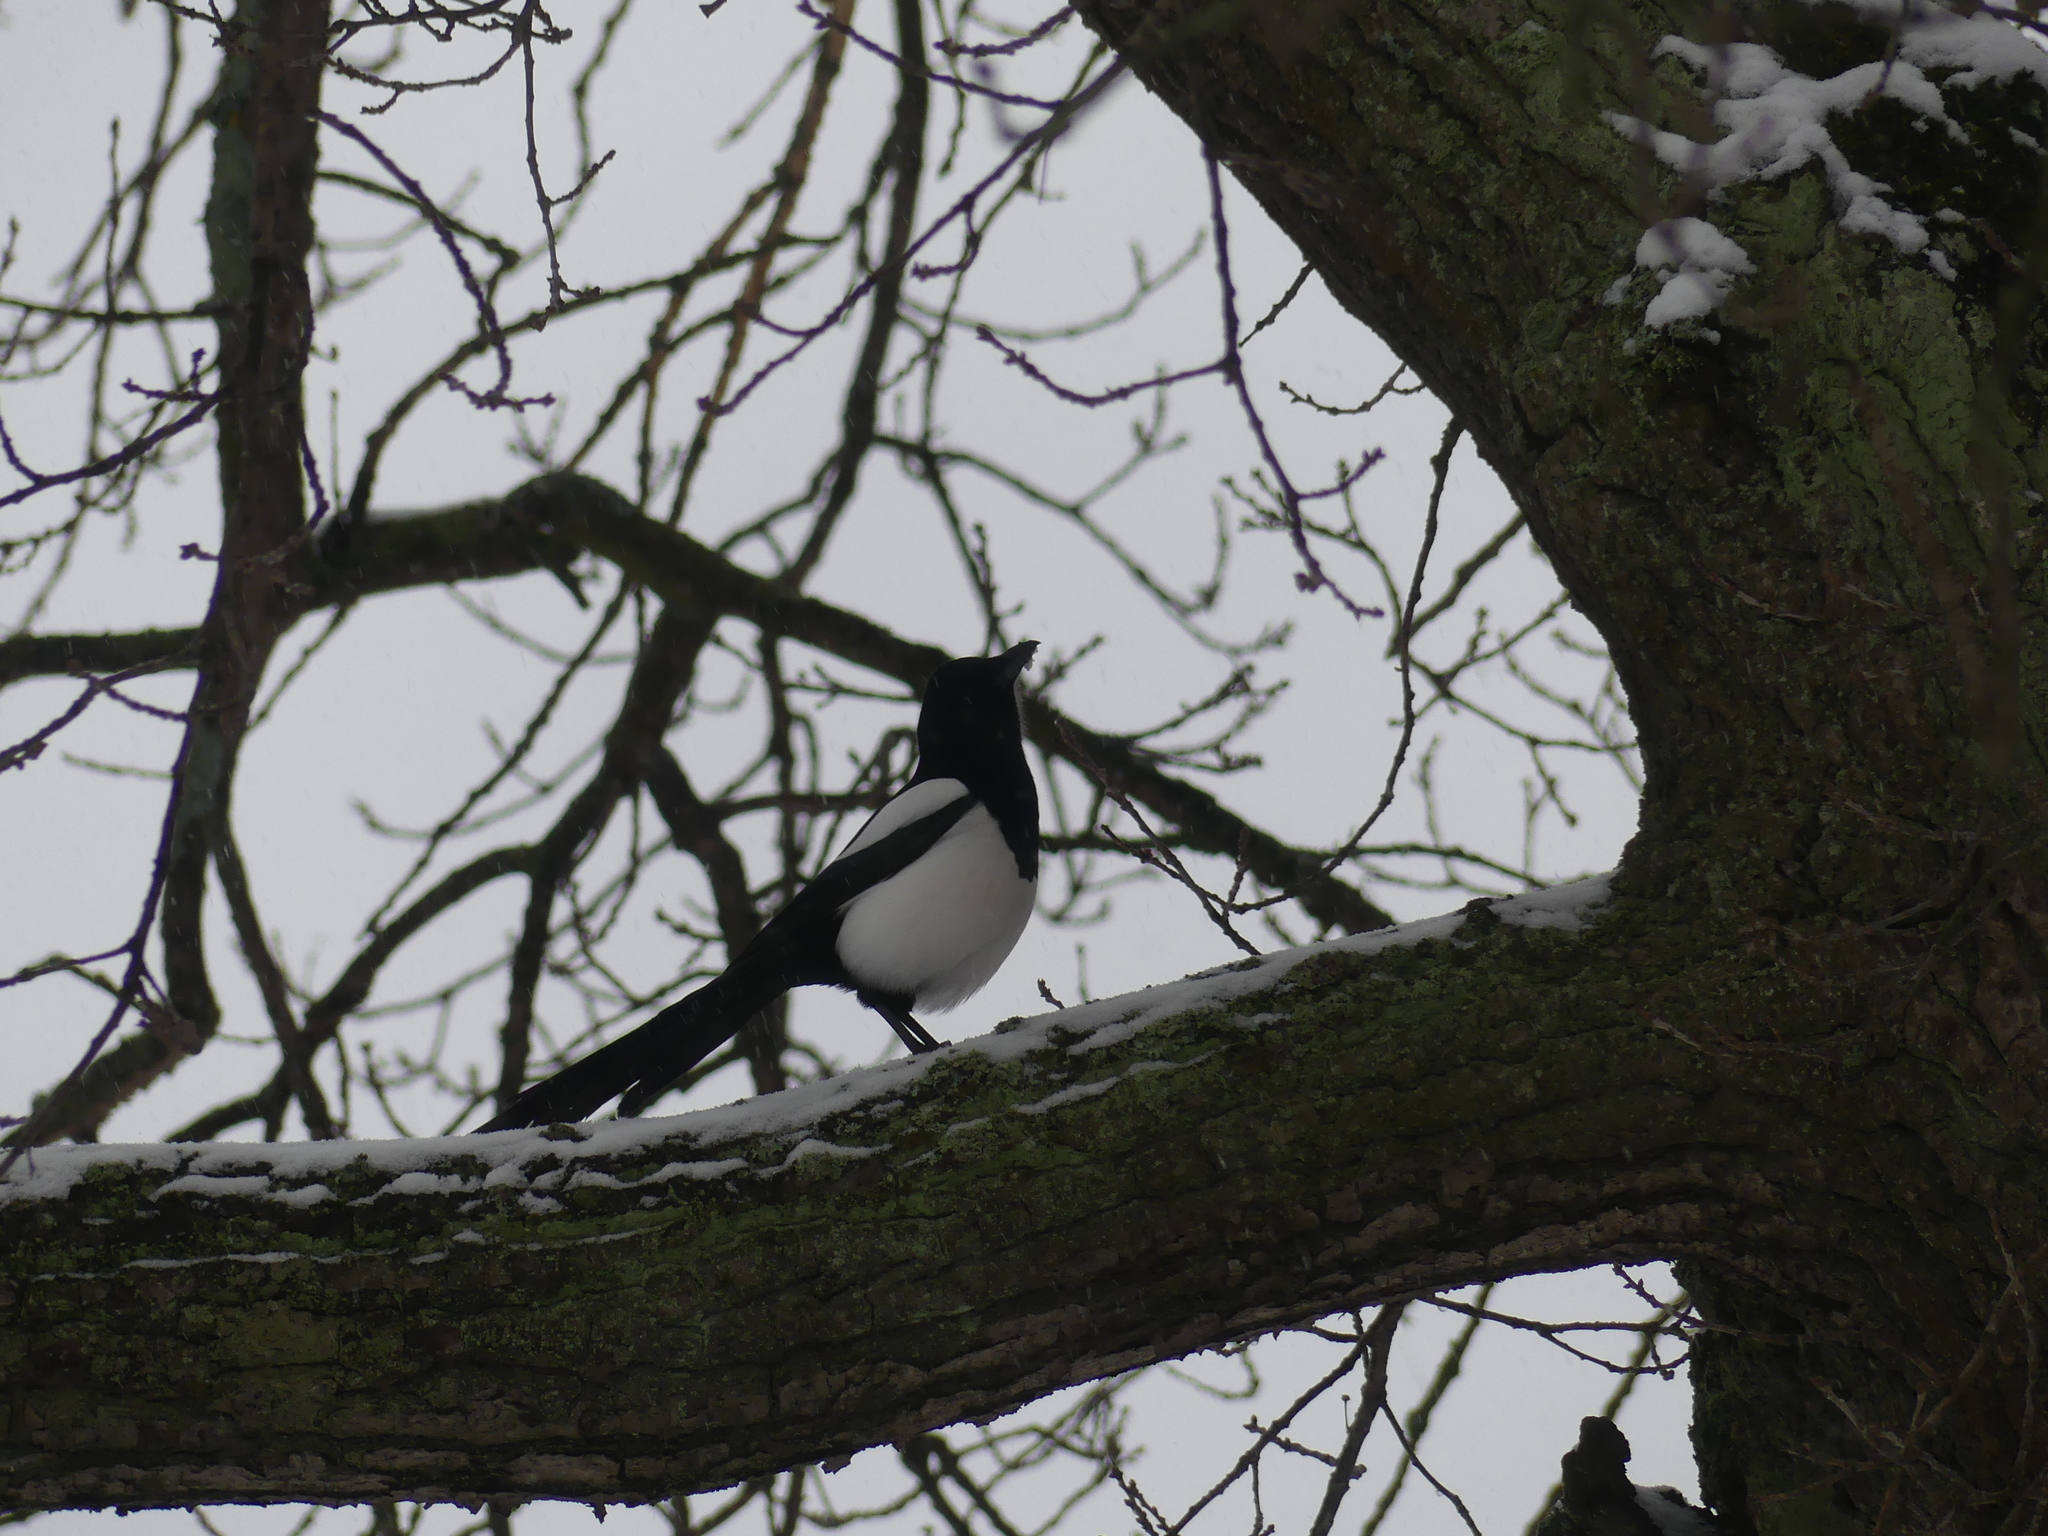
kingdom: Animalia
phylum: Chordata
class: Aves
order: Passeriformes
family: Corvidae
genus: Pica
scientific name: Pica pica
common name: Eurasian magpie
